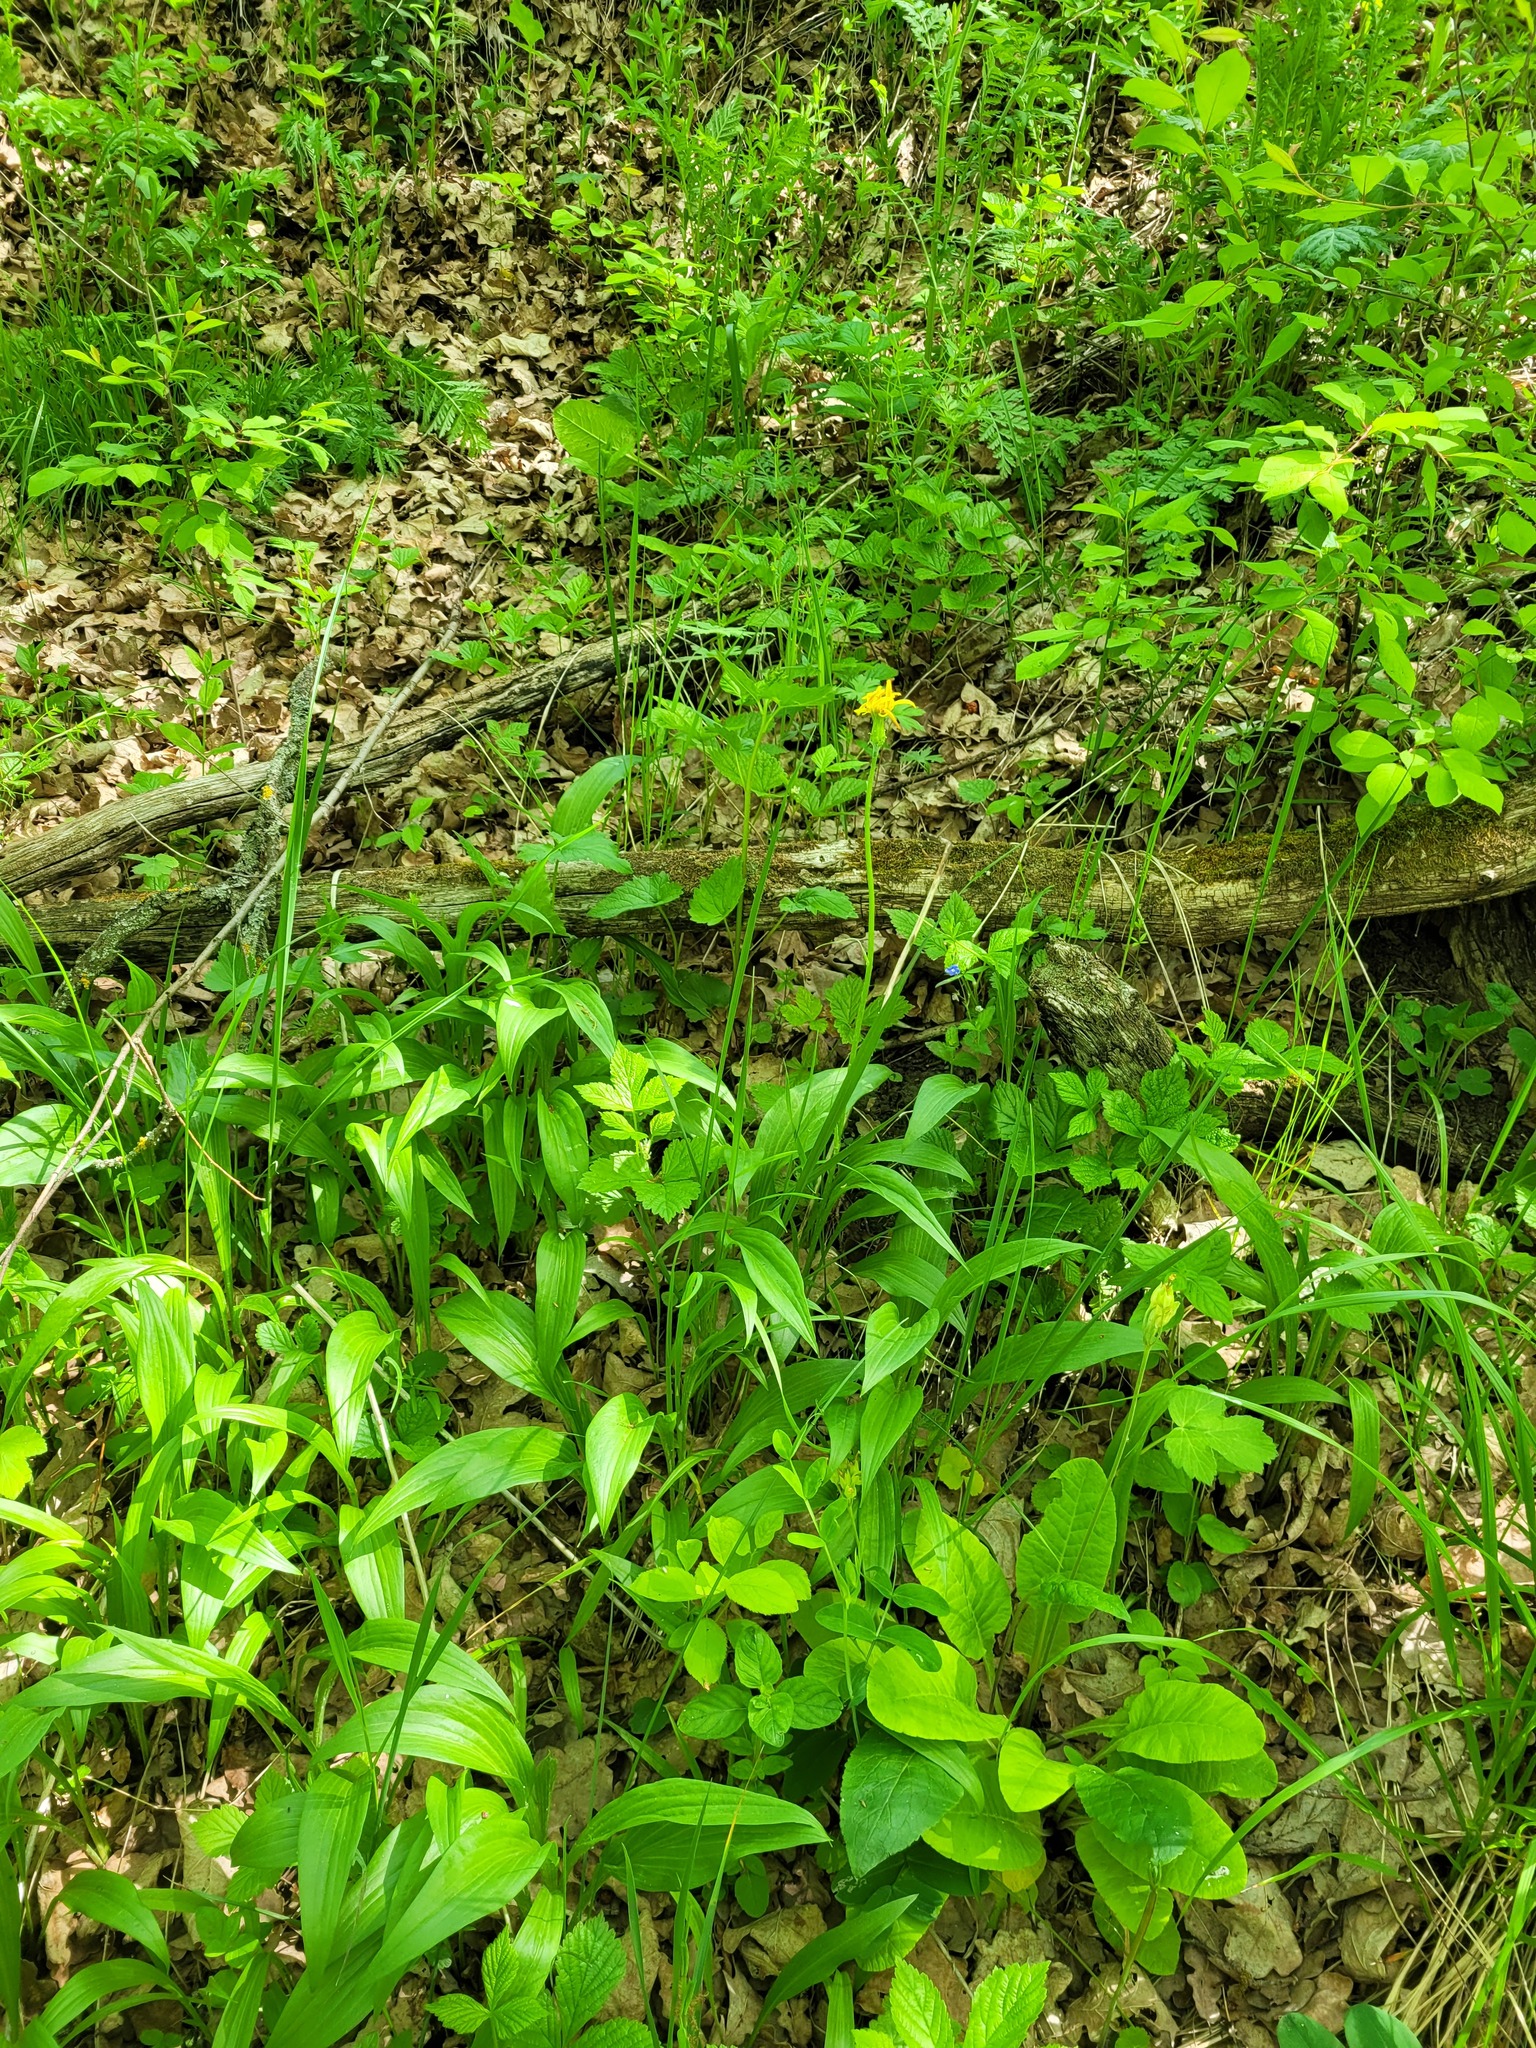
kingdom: Plantae
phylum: Tracheophyta
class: Magnoliopsida
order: Asterales
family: Asteraceae
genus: Scorzonera
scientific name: Scorzonera humilis
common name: Viper's-grass
